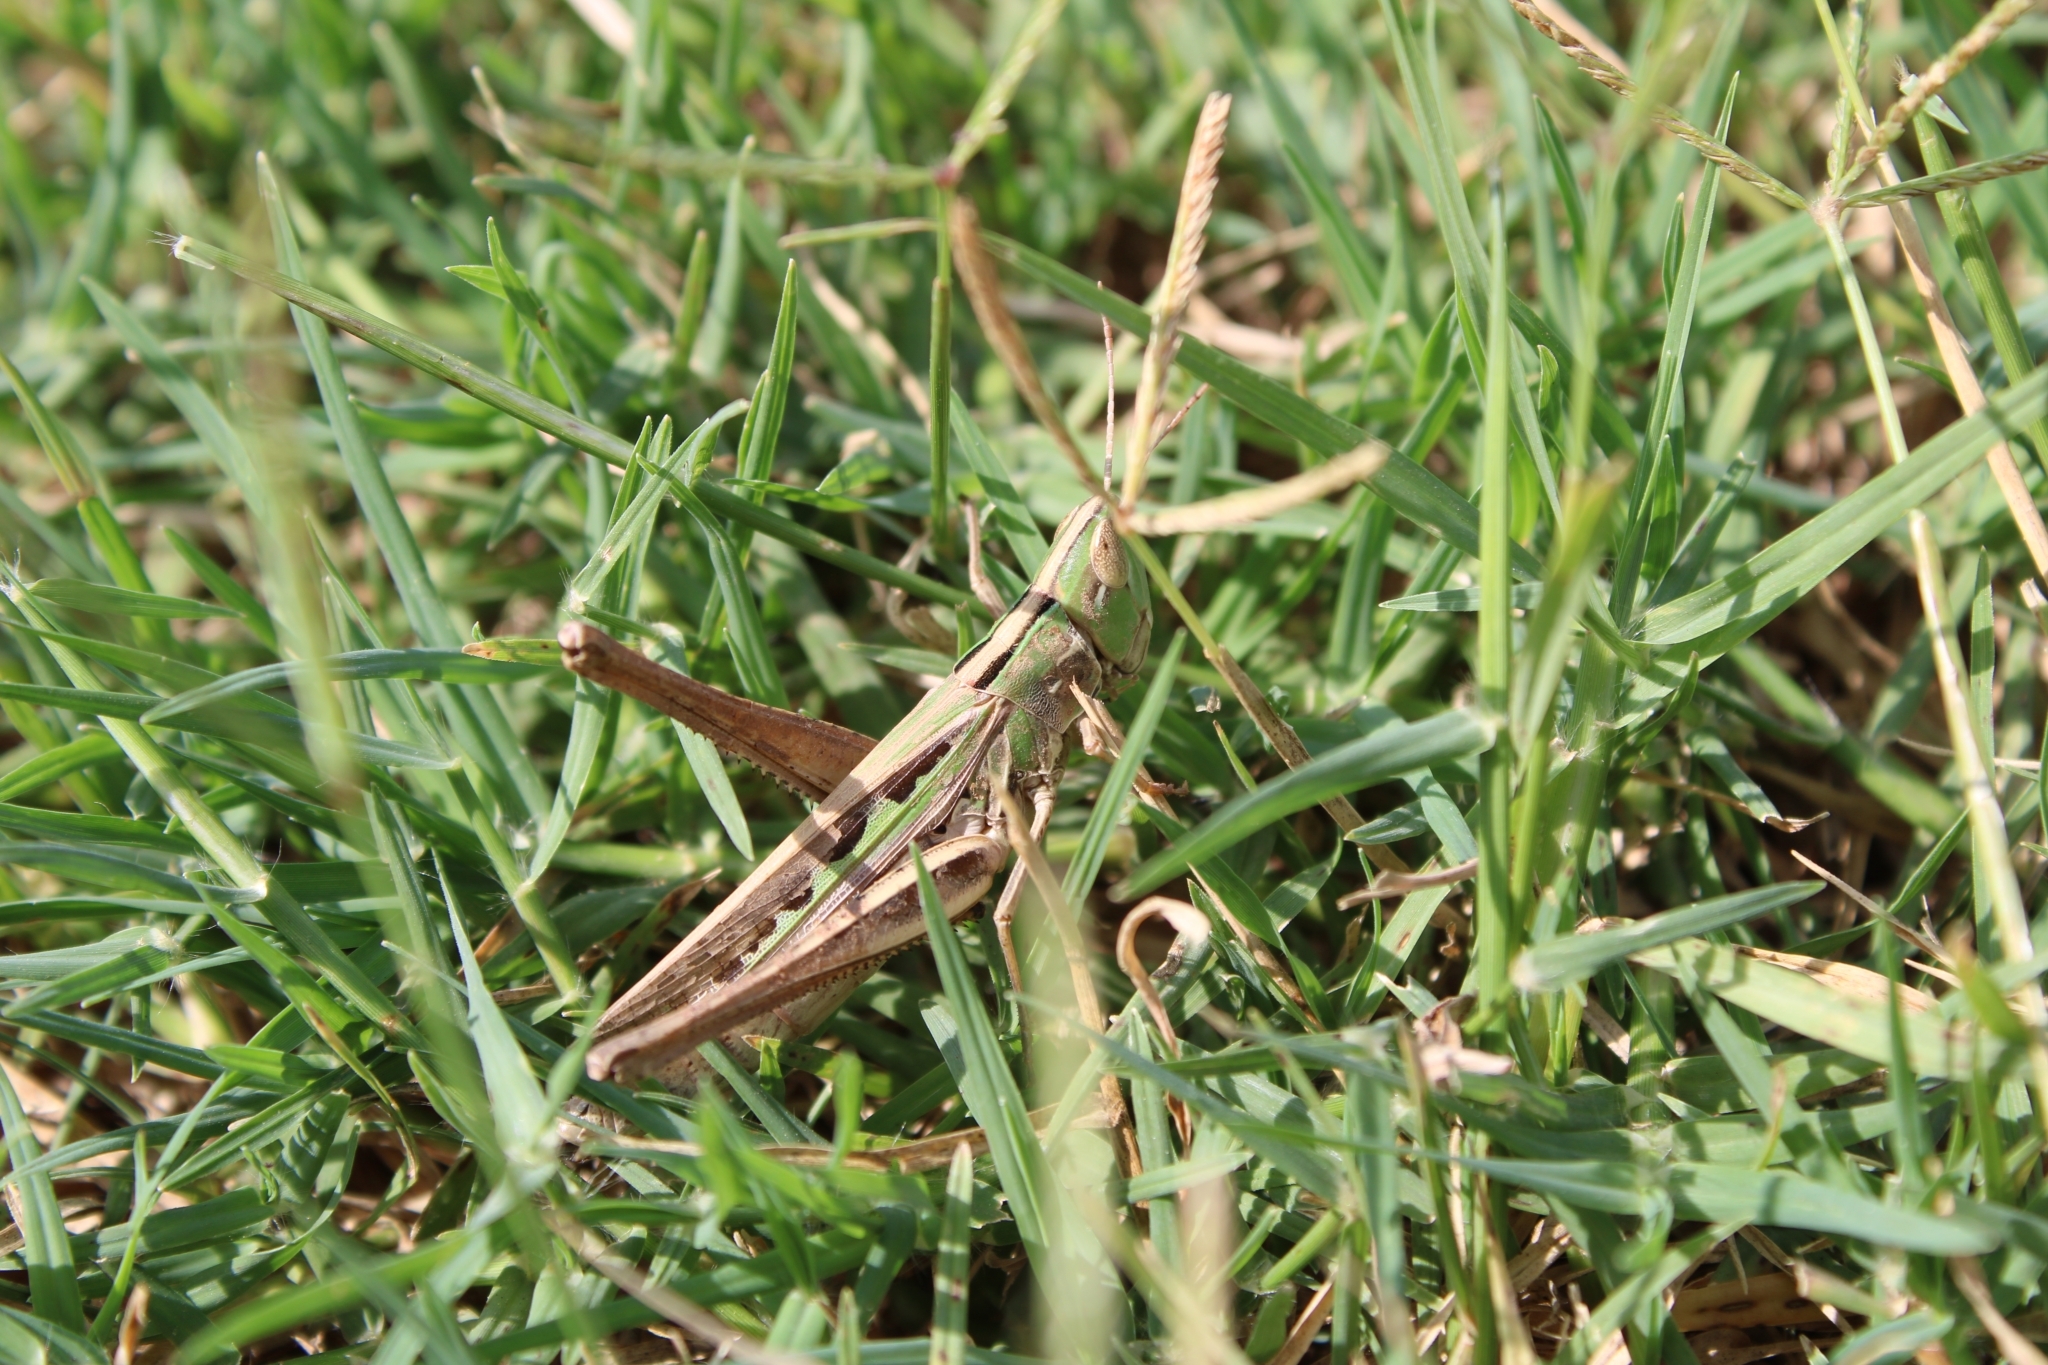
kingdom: Animalia
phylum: Arthropoda
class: Insecta
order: Orthoptera
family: Acrididae
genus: Syrbula
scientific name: Syrbula admirabilis
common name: Handsome grasshopper
